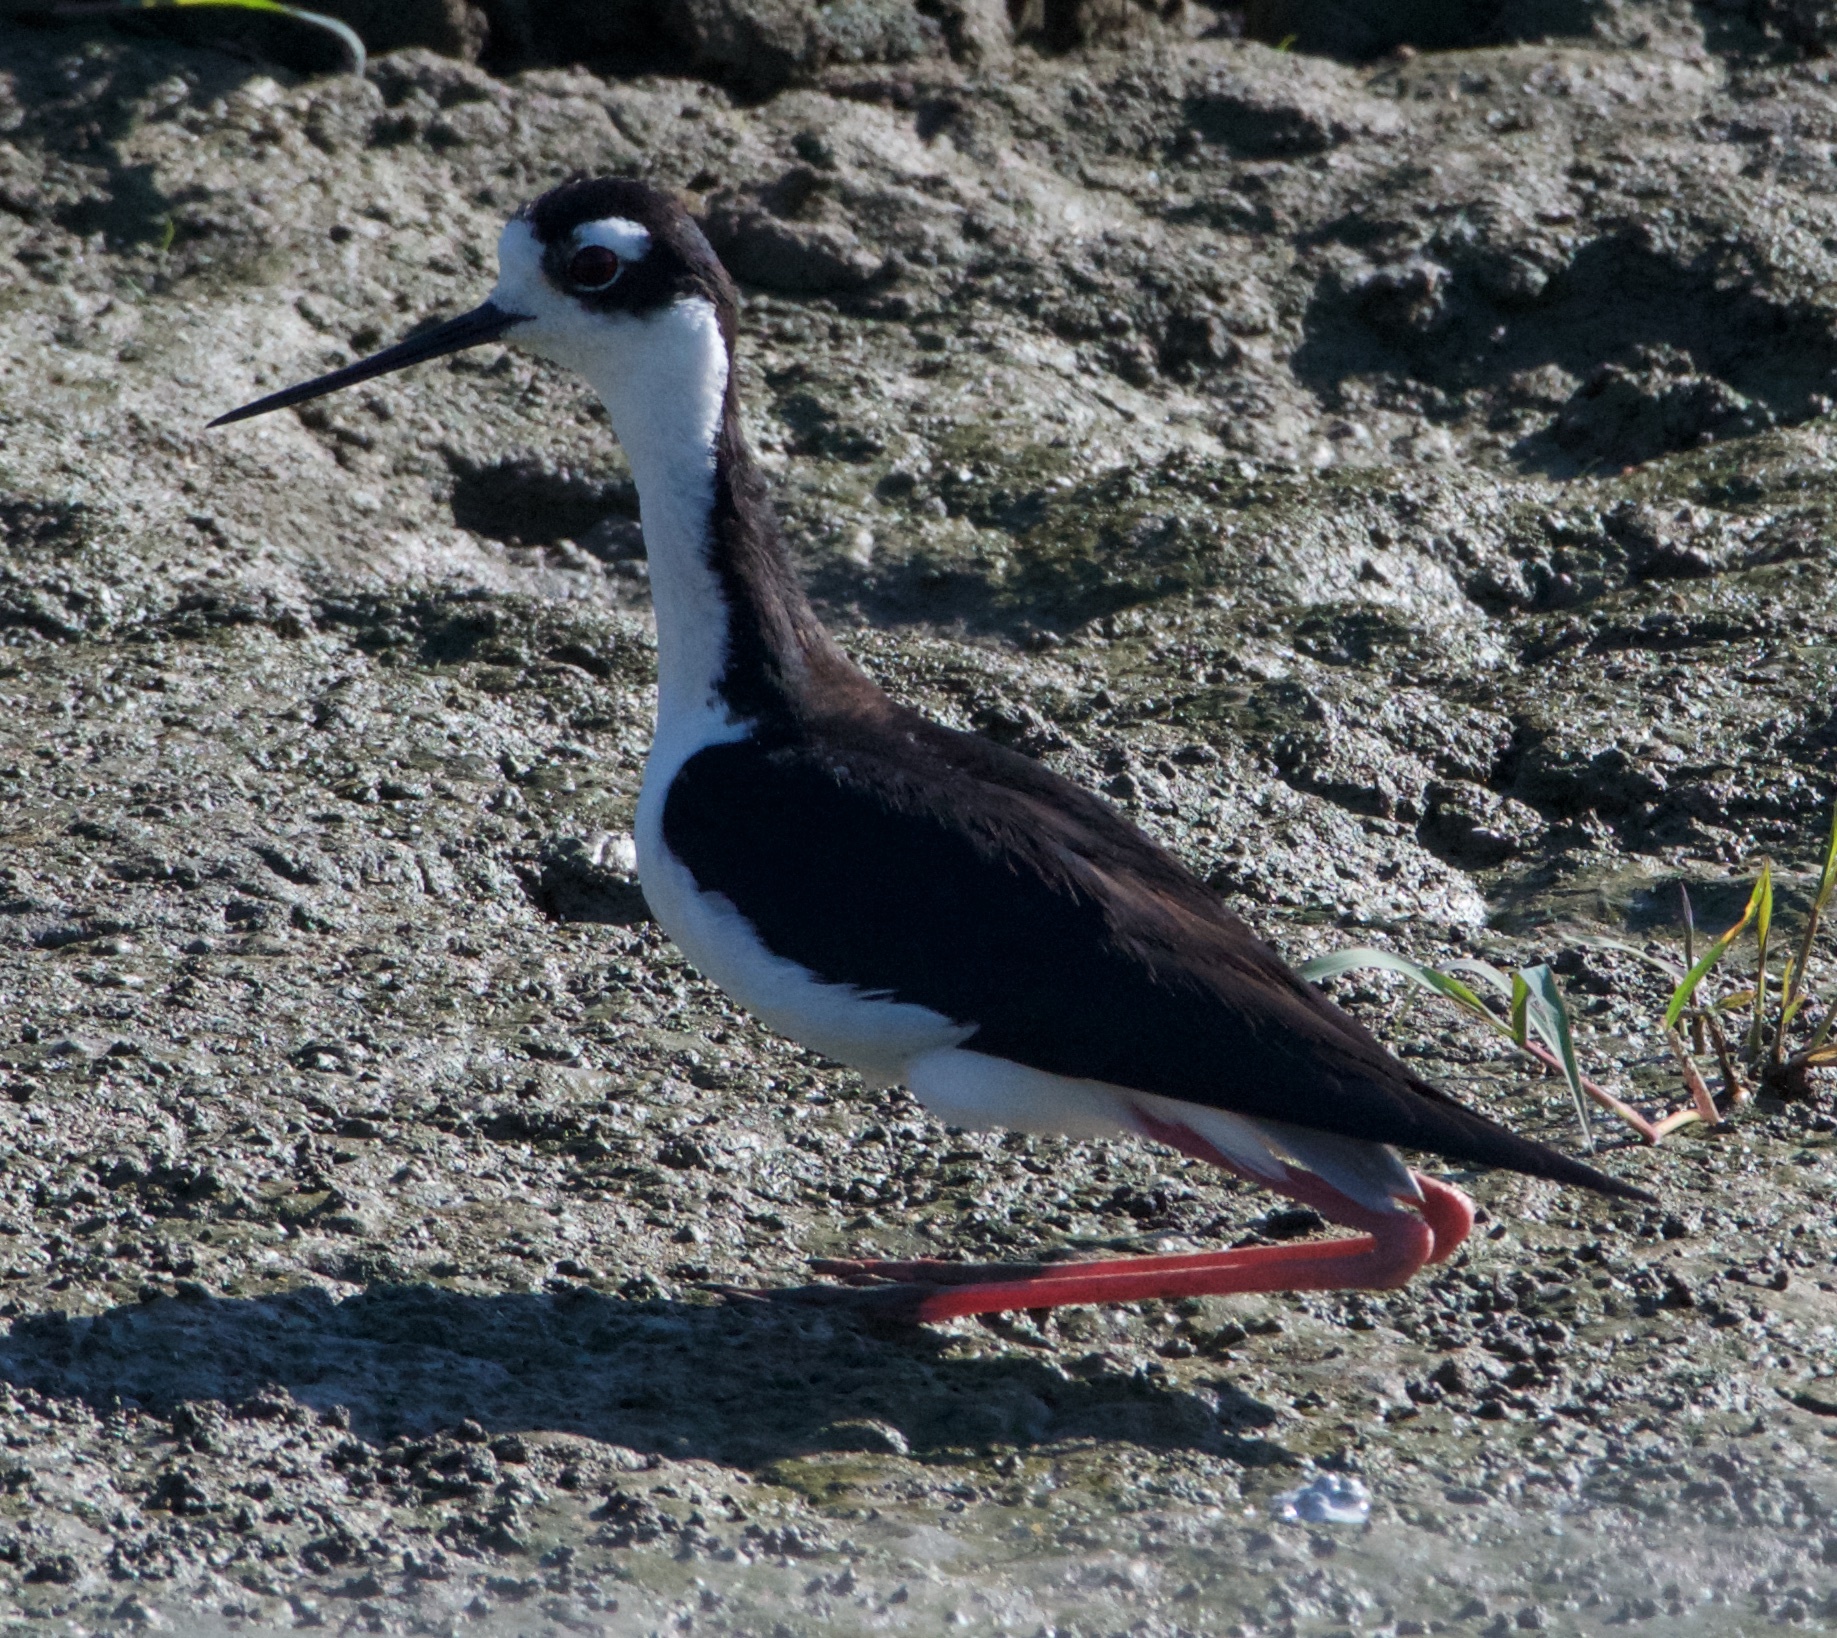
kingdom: Animalia
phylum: Chordata
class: Aves
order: Charadriiformes
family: Recurvirostridae
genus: Himantopus
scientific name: Himantopus mexicanus
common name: Black-necked stilt
